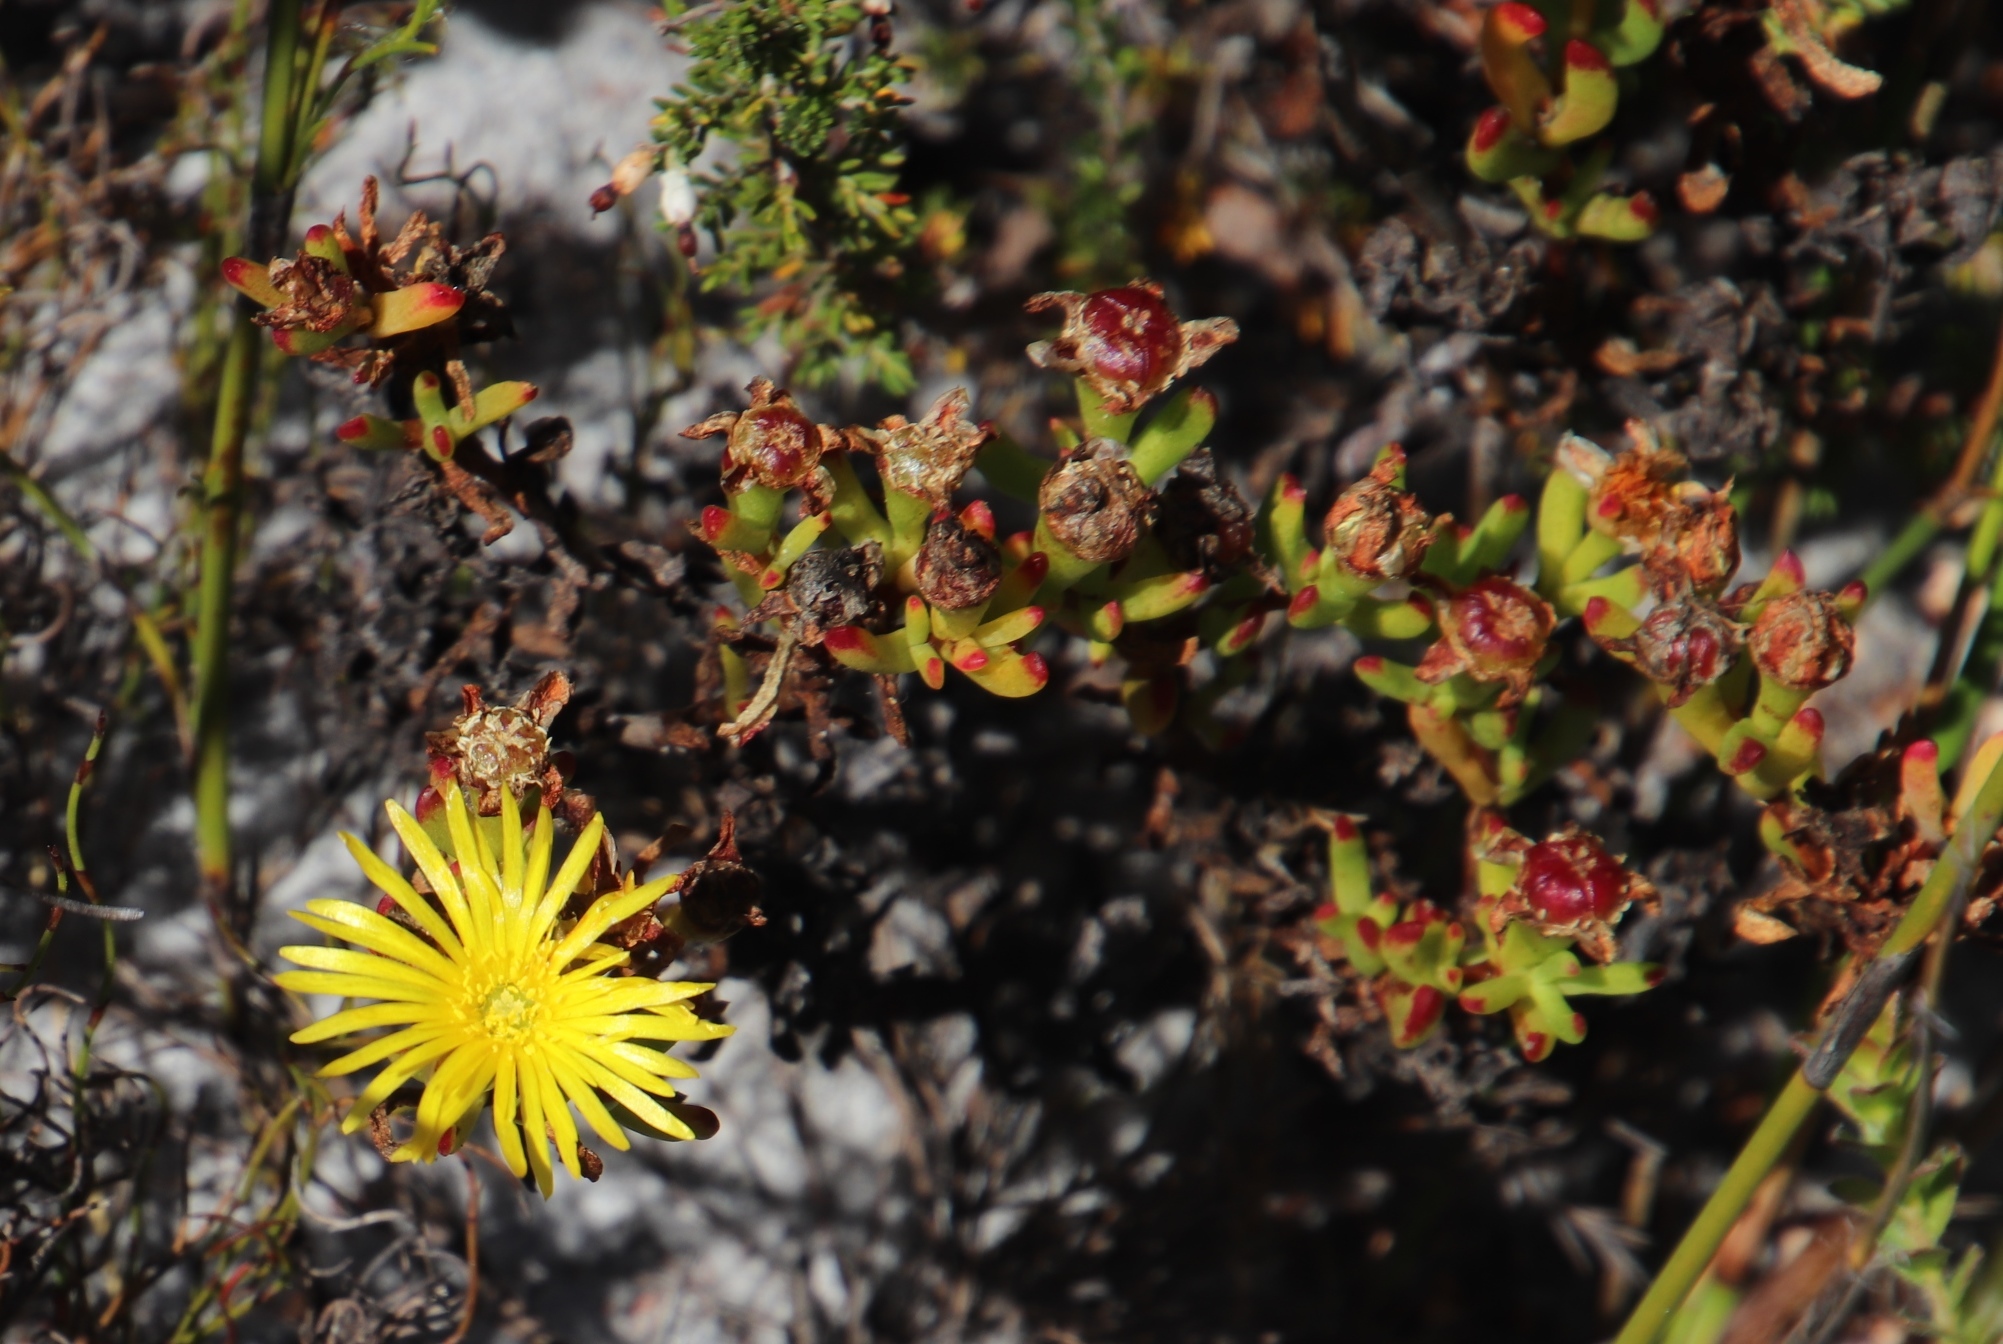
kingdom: Plantae
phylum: Tracheophyta
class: Magnoliopsida
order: Caryophyllales
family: Aizoaceae
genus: Lampranthus
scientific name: Lampranthus promontorii
